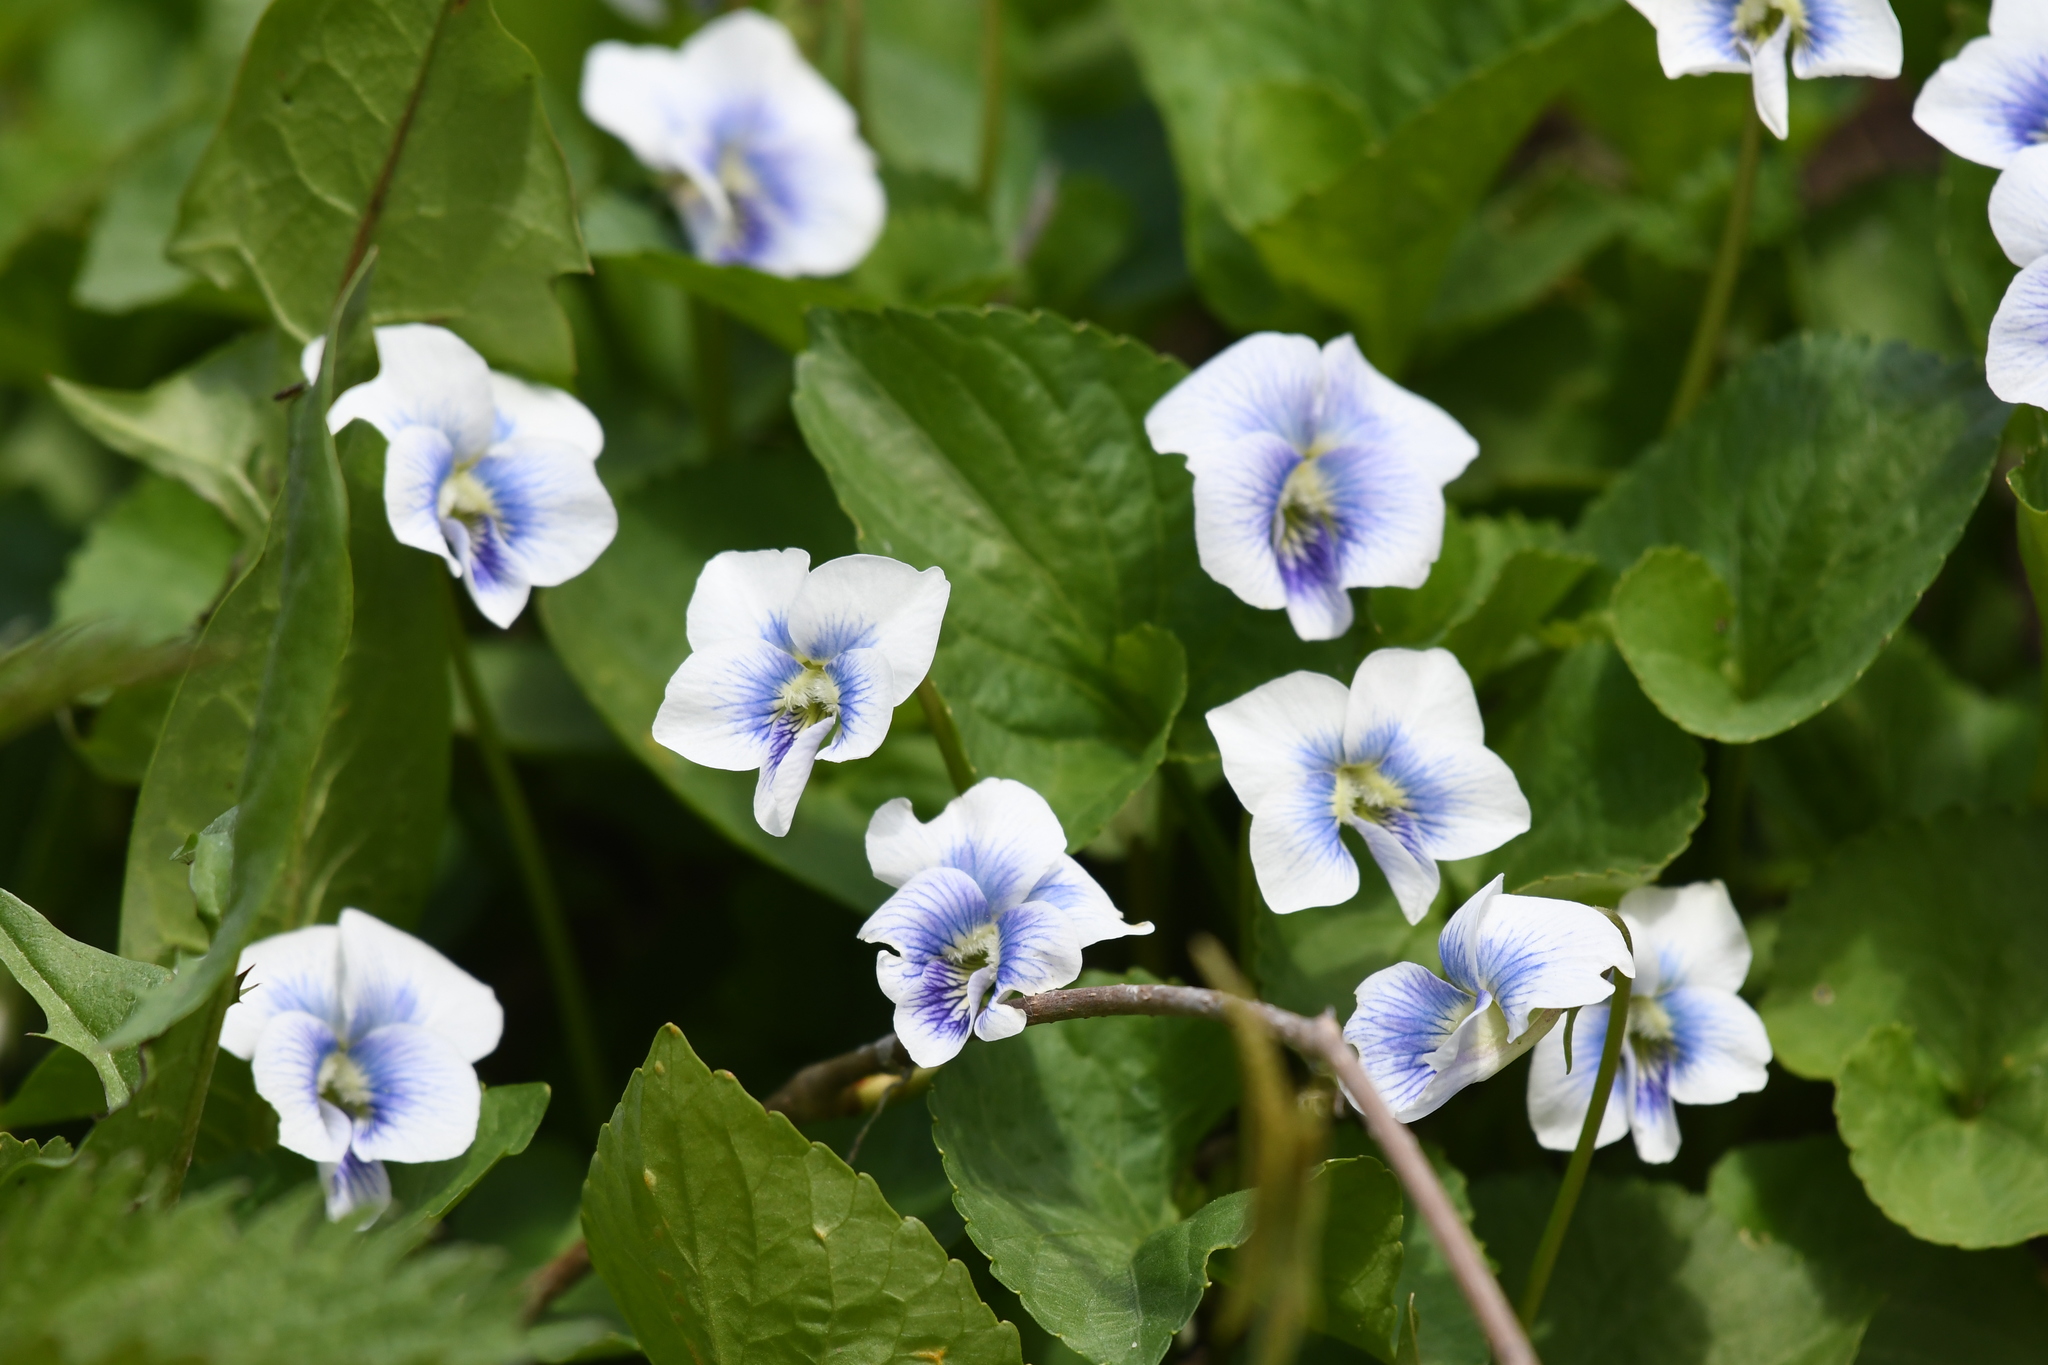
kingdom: Plantae
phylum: Tracheophyta
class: Magnoliopsida
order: Malpighiales
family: Violaceae
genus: Viola
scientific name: Viola sororia
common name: Dooryard violet
